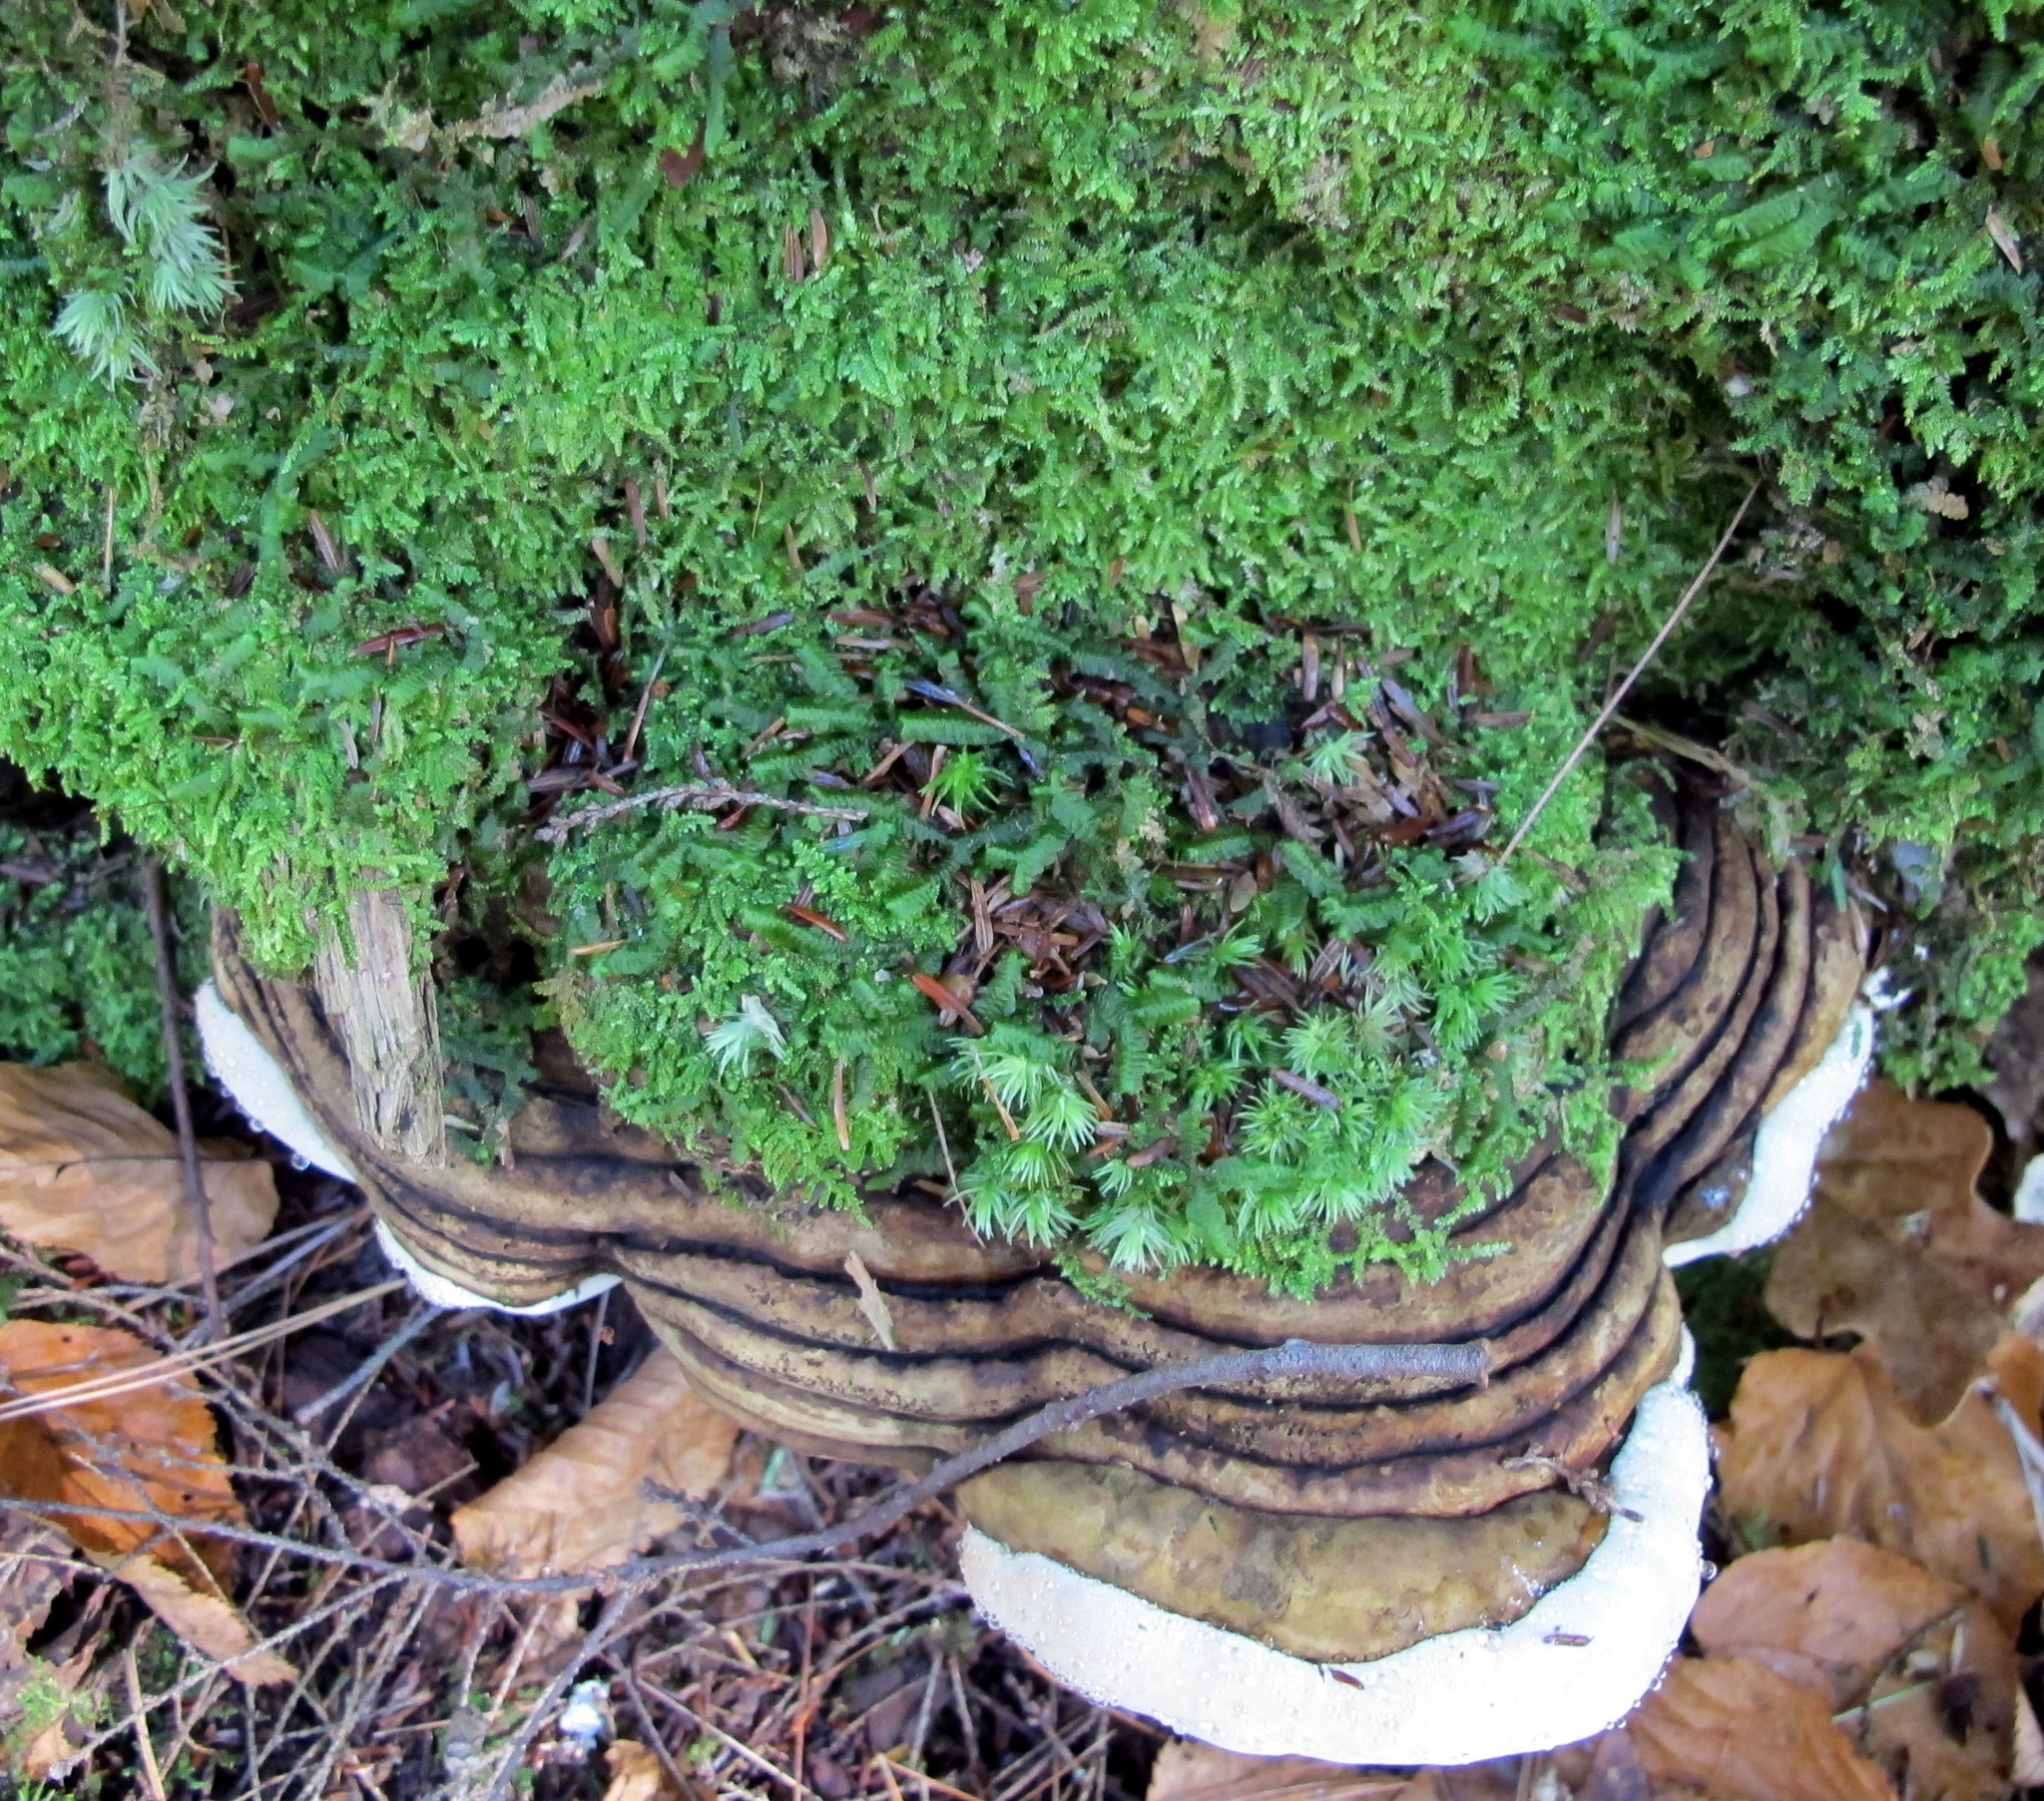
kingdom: Fungi
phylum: Basidiomycota
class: Agaricomycetes
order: Polyporales
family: Fomitopsidaceae
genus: Fomitopsis
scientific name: Fomitopsis ochracea
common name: American brown fomitopsis
